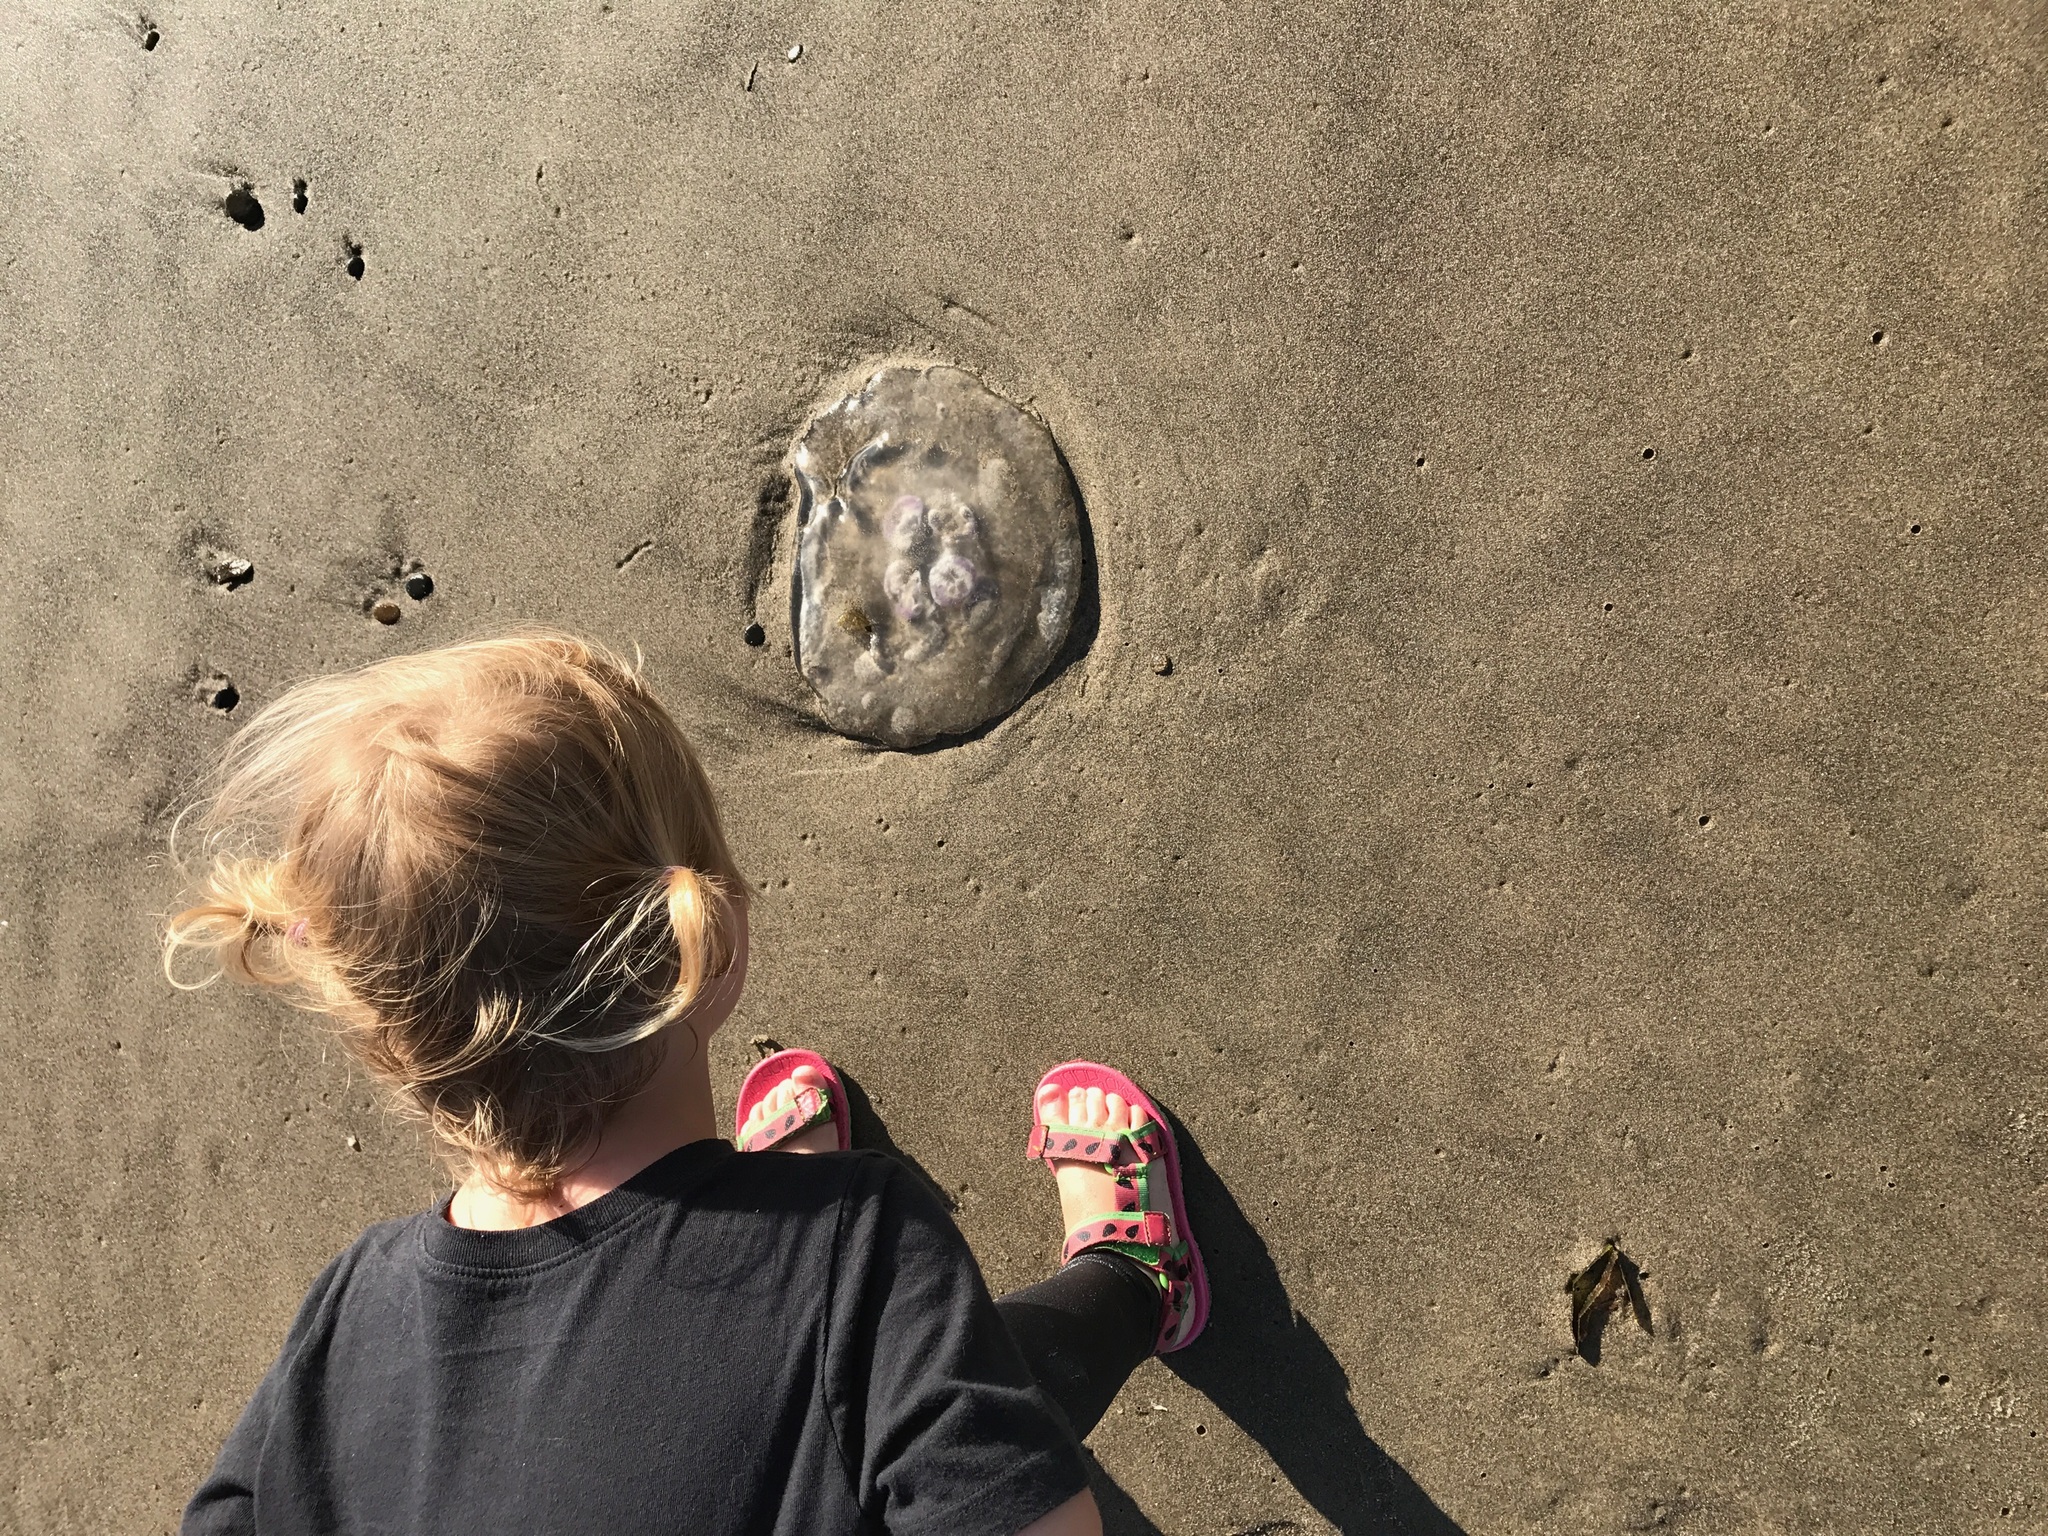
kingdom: Animalia
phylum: Cnidaria
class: Scyphozoa
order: Semaeostomeae
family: Ulmaridae
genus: Aurelia
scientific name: Aurelia labiata
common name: Pacific moon jelly
